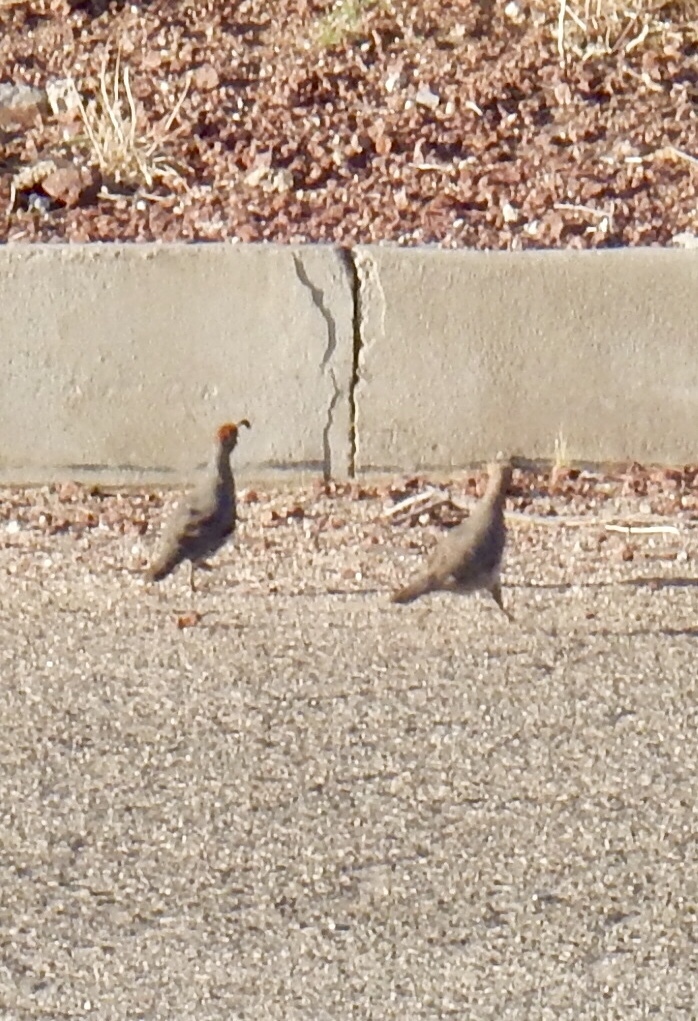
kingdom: Animalia
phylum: Chordata
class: Aves
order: Galliformes
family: Odontophoridae
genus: Callipepla
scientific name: Callipepla gambelii
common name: Gambel's quail
